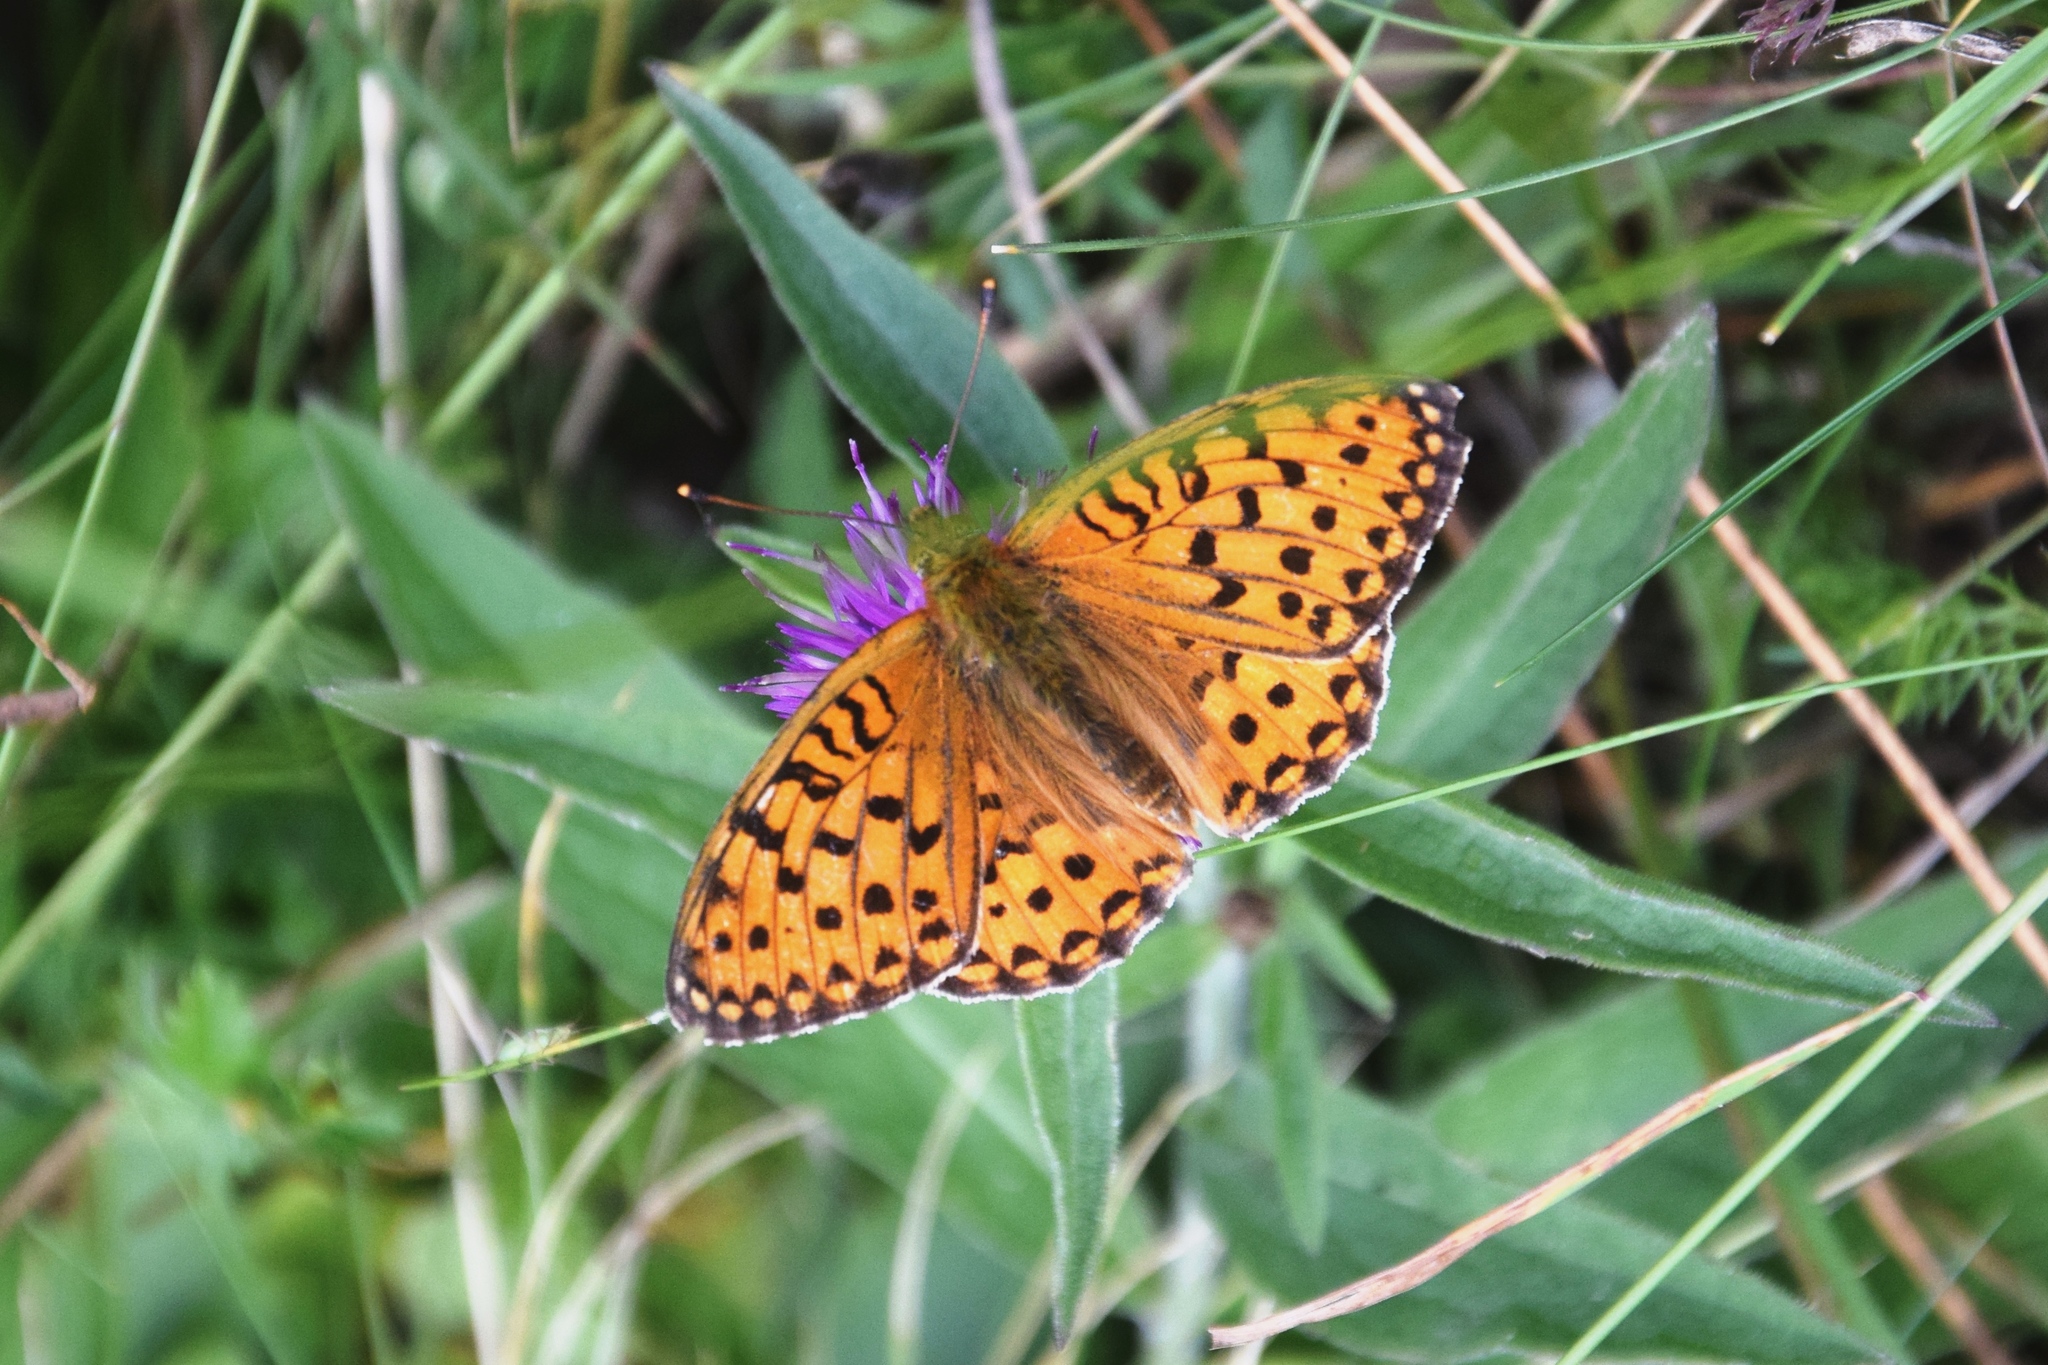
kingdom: Animalia
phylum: Arthropoda
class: Insecta
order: Lepidoptera
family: Nymphalidae
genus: Speyeria
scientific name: Speyeria aglaja
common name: Dark green fritillary
